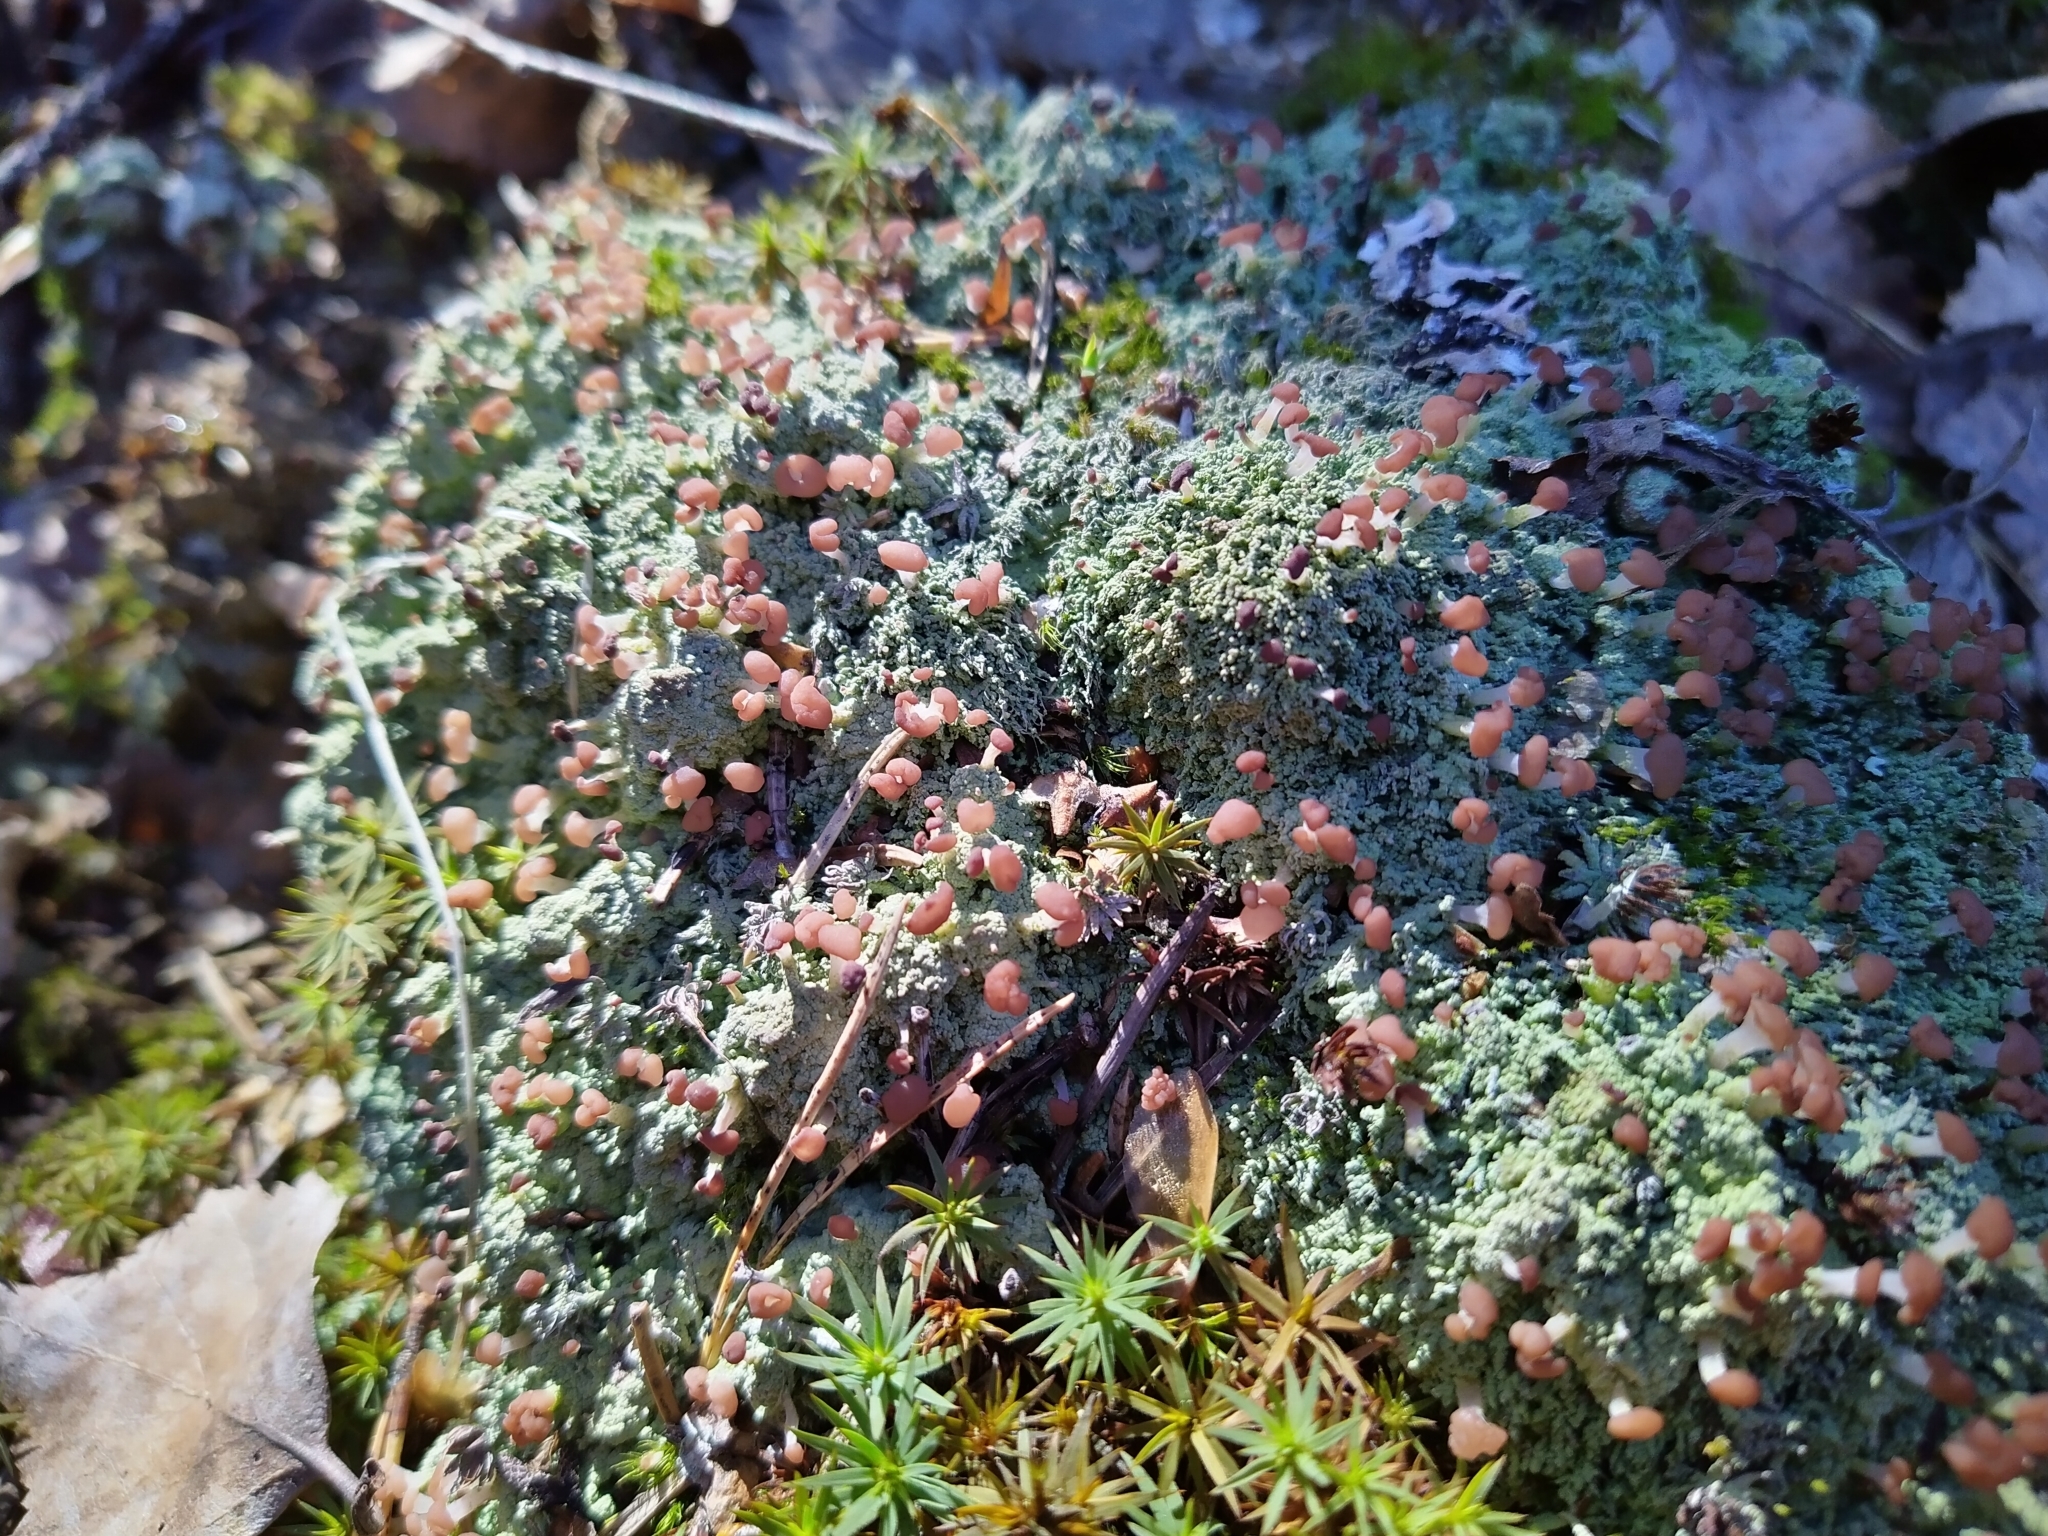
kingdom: Fungi
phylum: Ascomycota
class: Lecanoromycetes
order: Baeomycetales
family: Baeomycetaceae
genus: Baeomyces
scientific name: Baeomyces rufus
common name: Brown beret lichen
